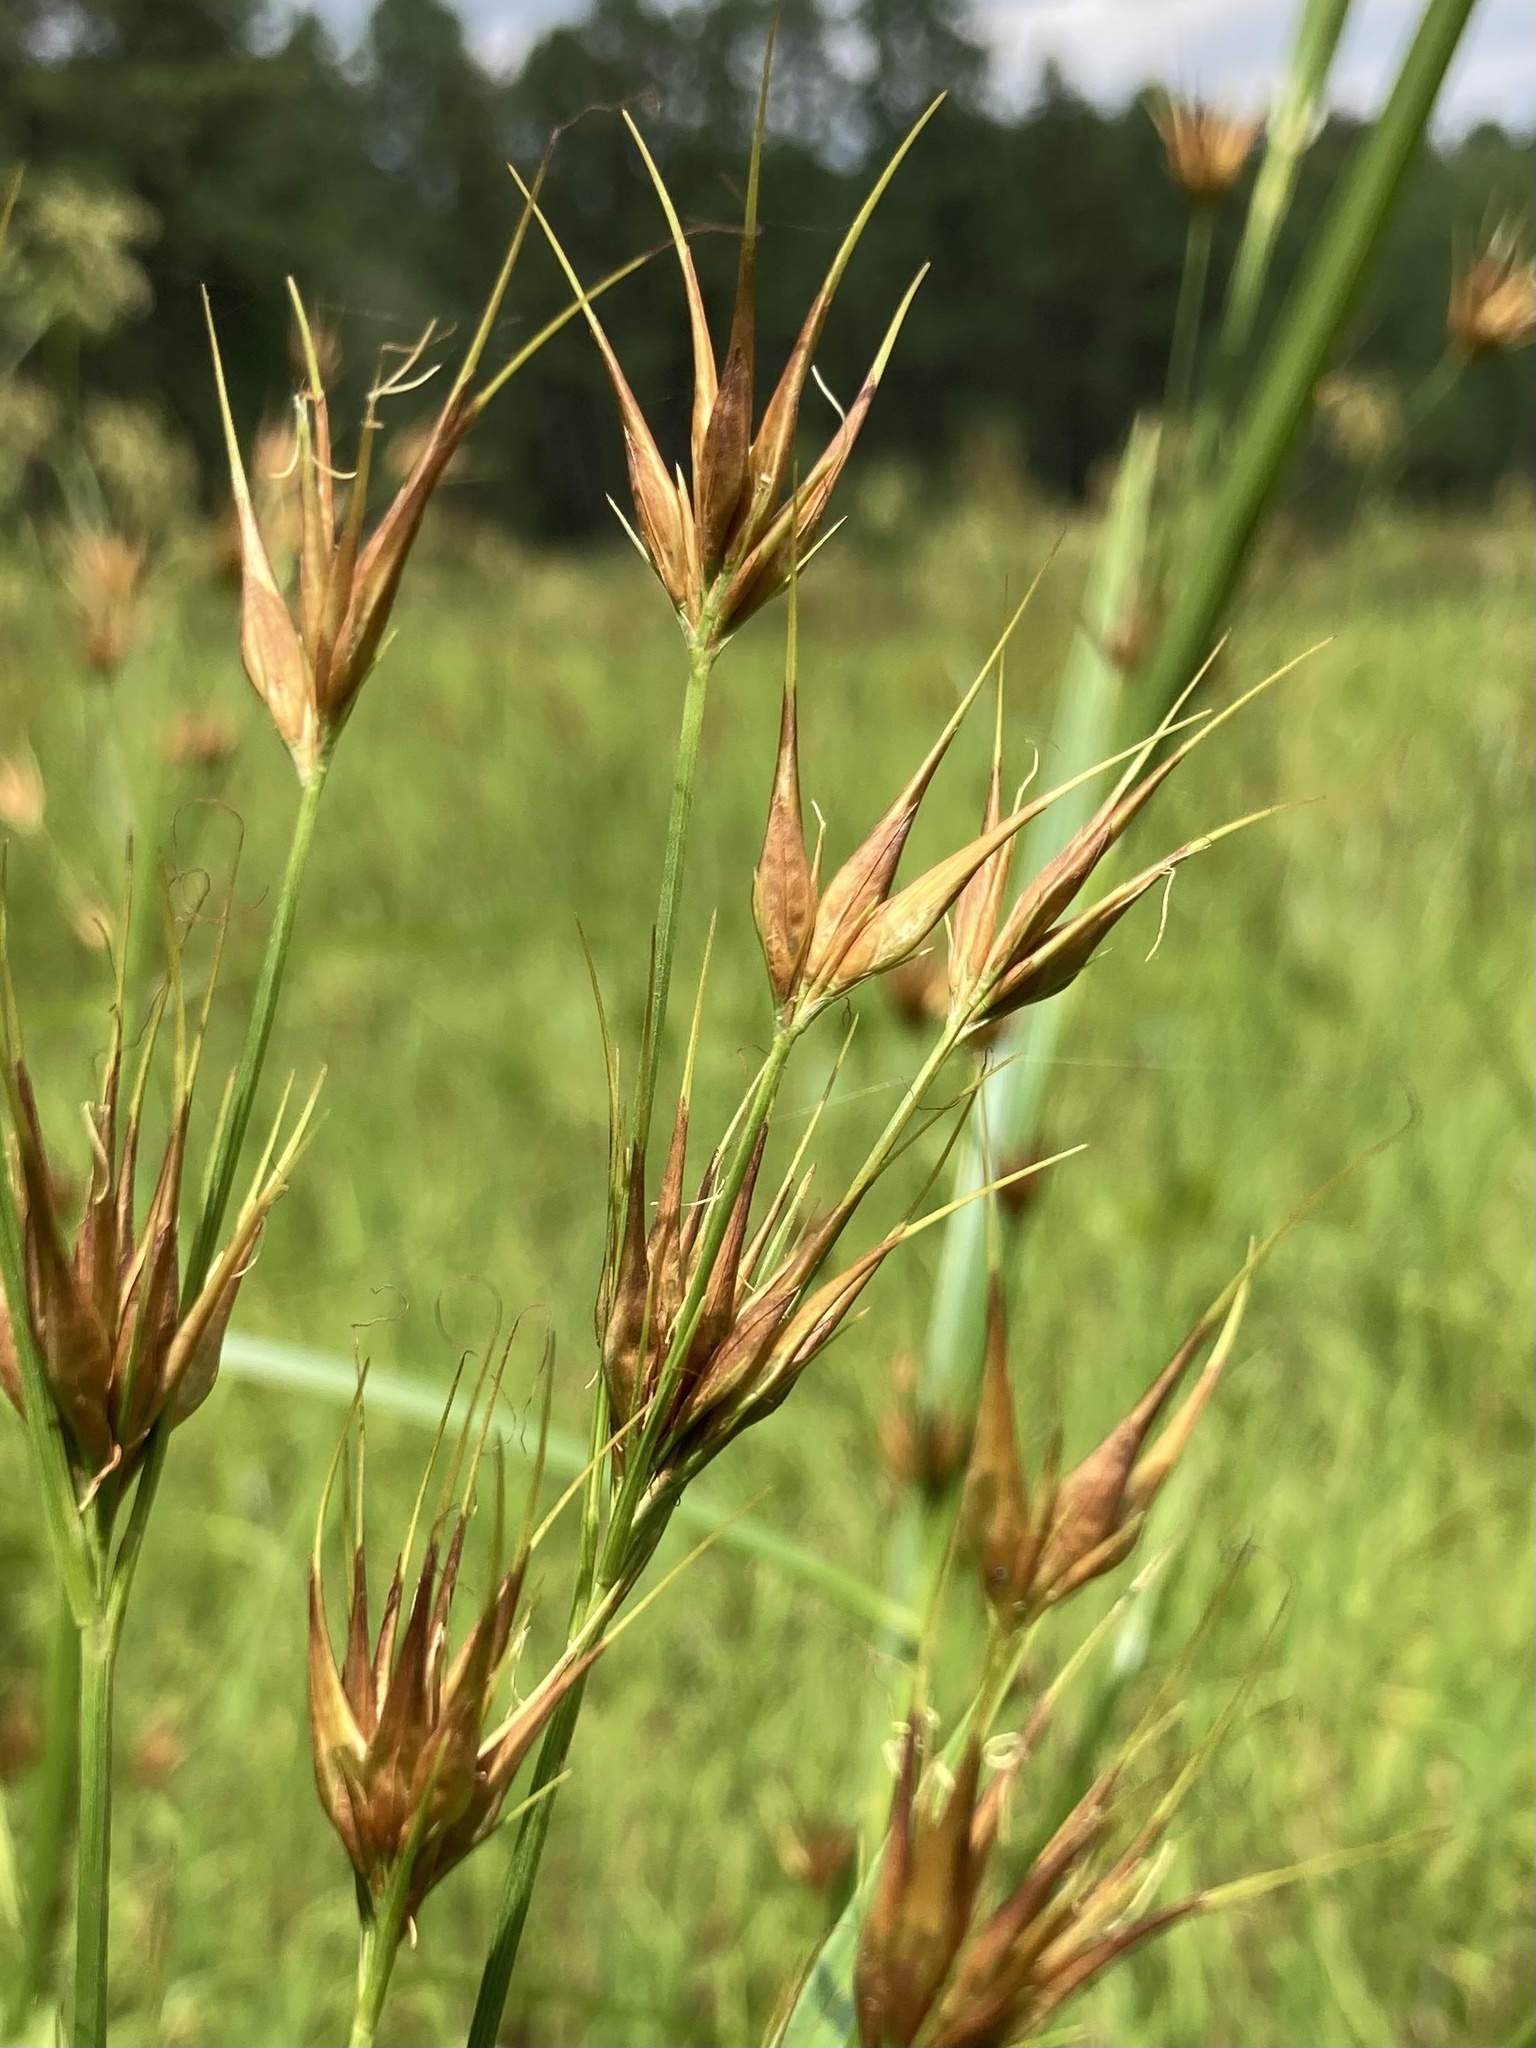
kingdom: Plantae
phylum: Tracheophyta
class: Liliopsida
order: Poales
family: Cyperaceae
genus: Rhynchospora
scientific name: Rhynchospora macrostachya
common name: Tall beakrush
